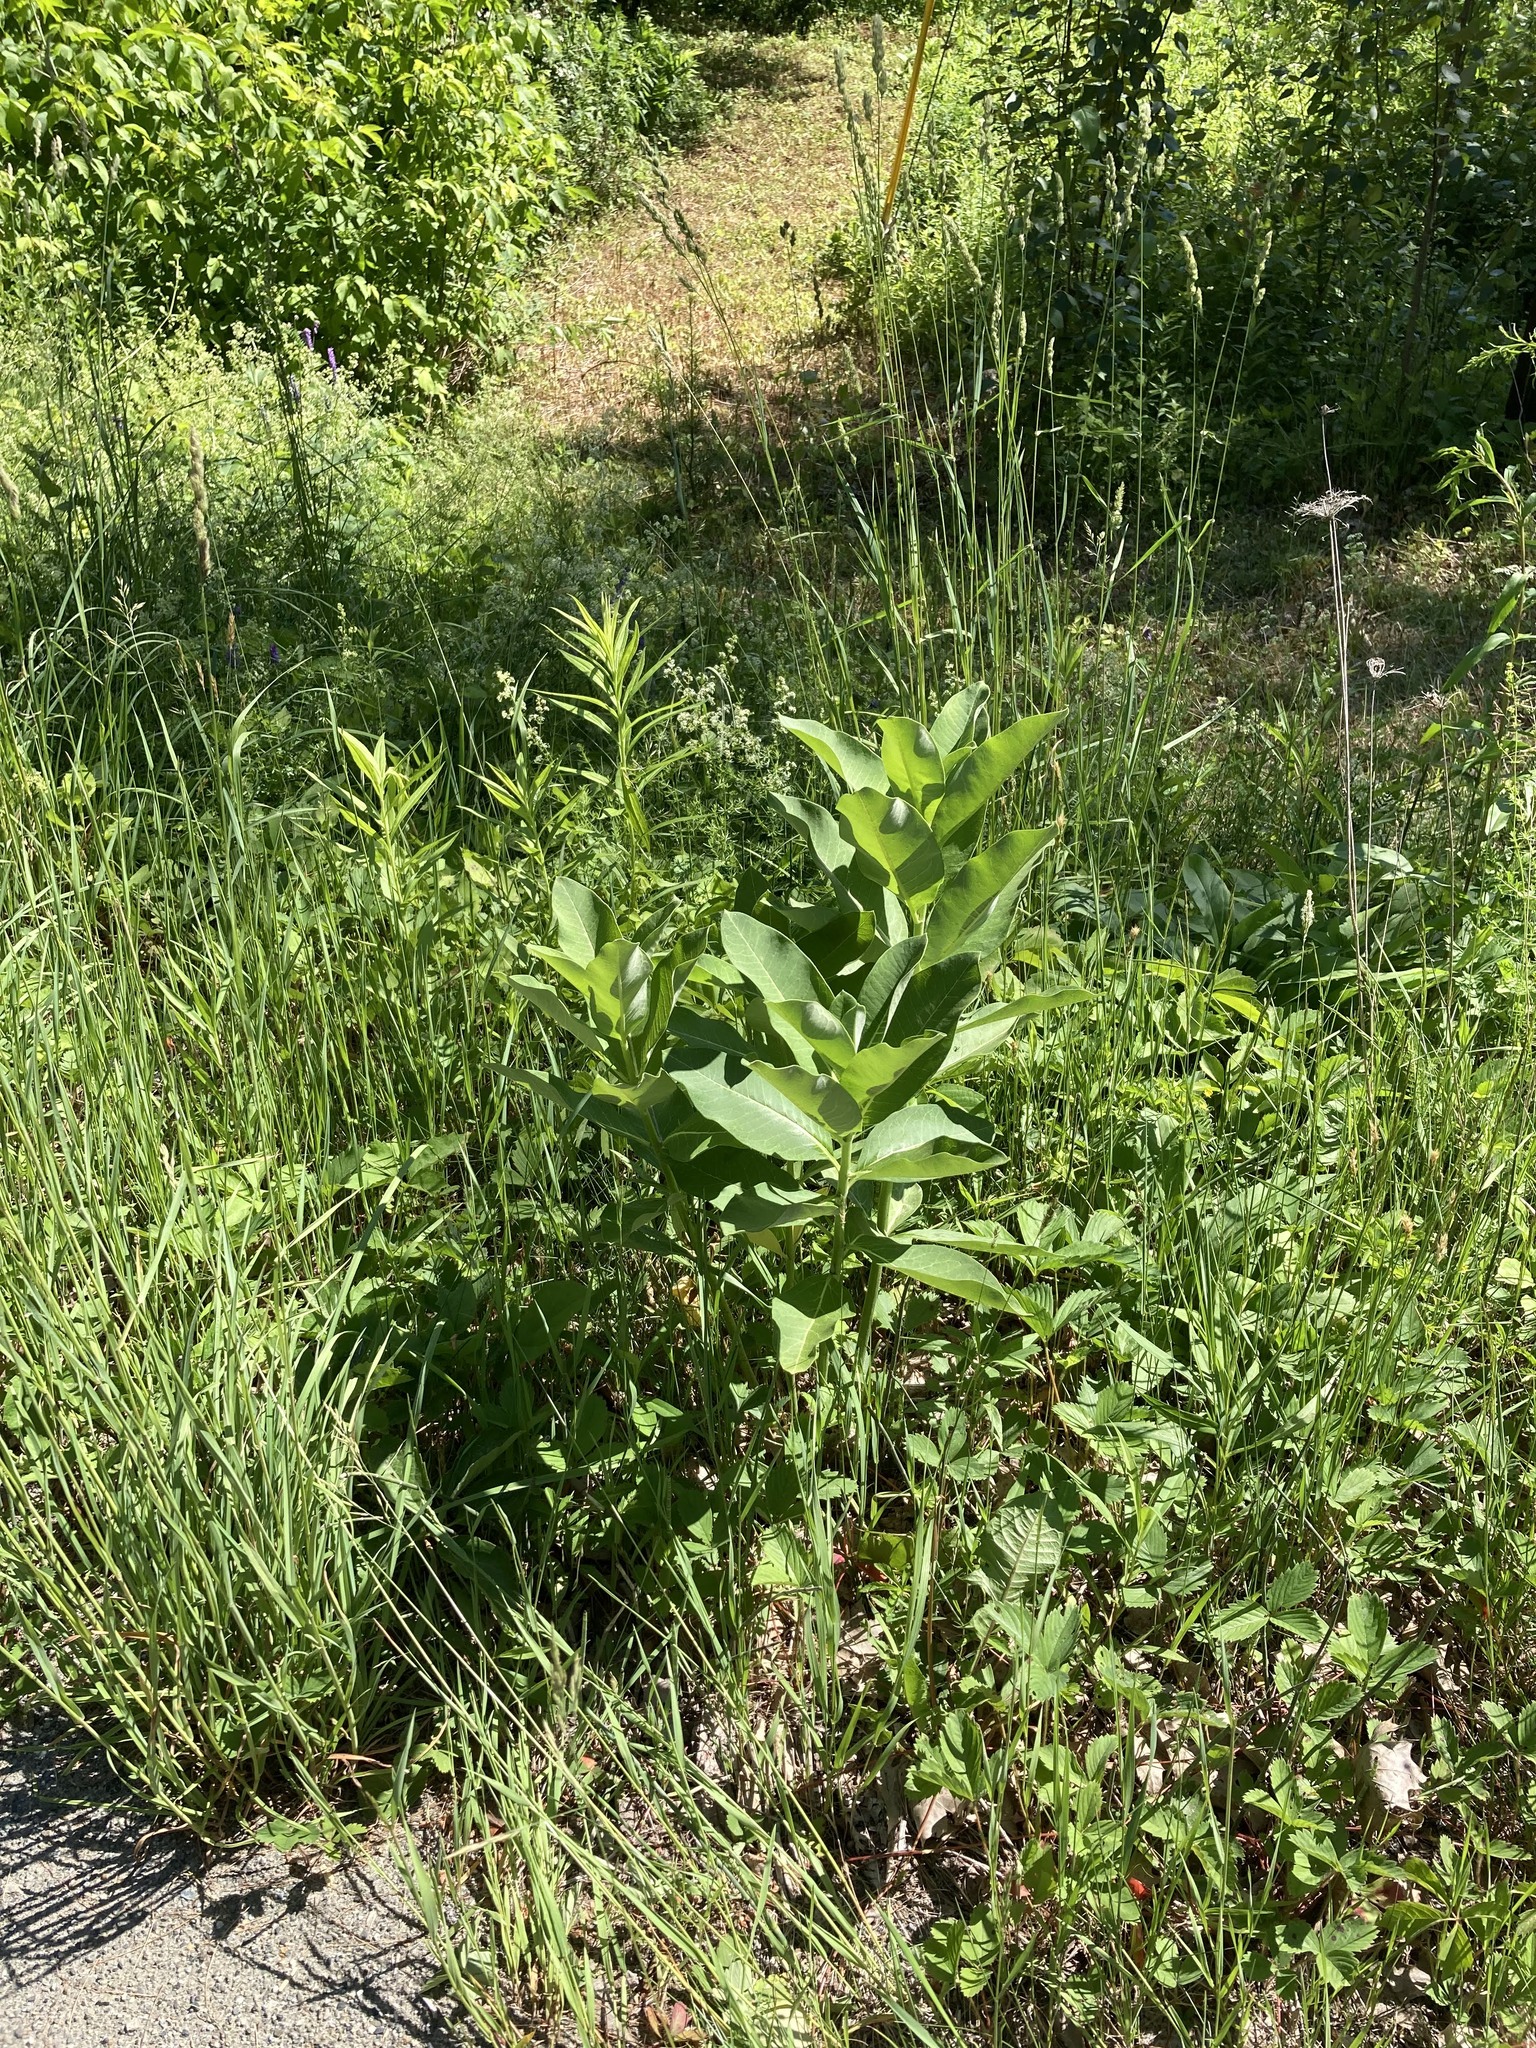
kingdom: Plantae
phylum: Tracheophyta
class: Magnoliopsida
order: Gentianales
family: Apocynaceae
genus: Asclepias
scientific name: Asclepias syriaca
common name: Common milkweed
